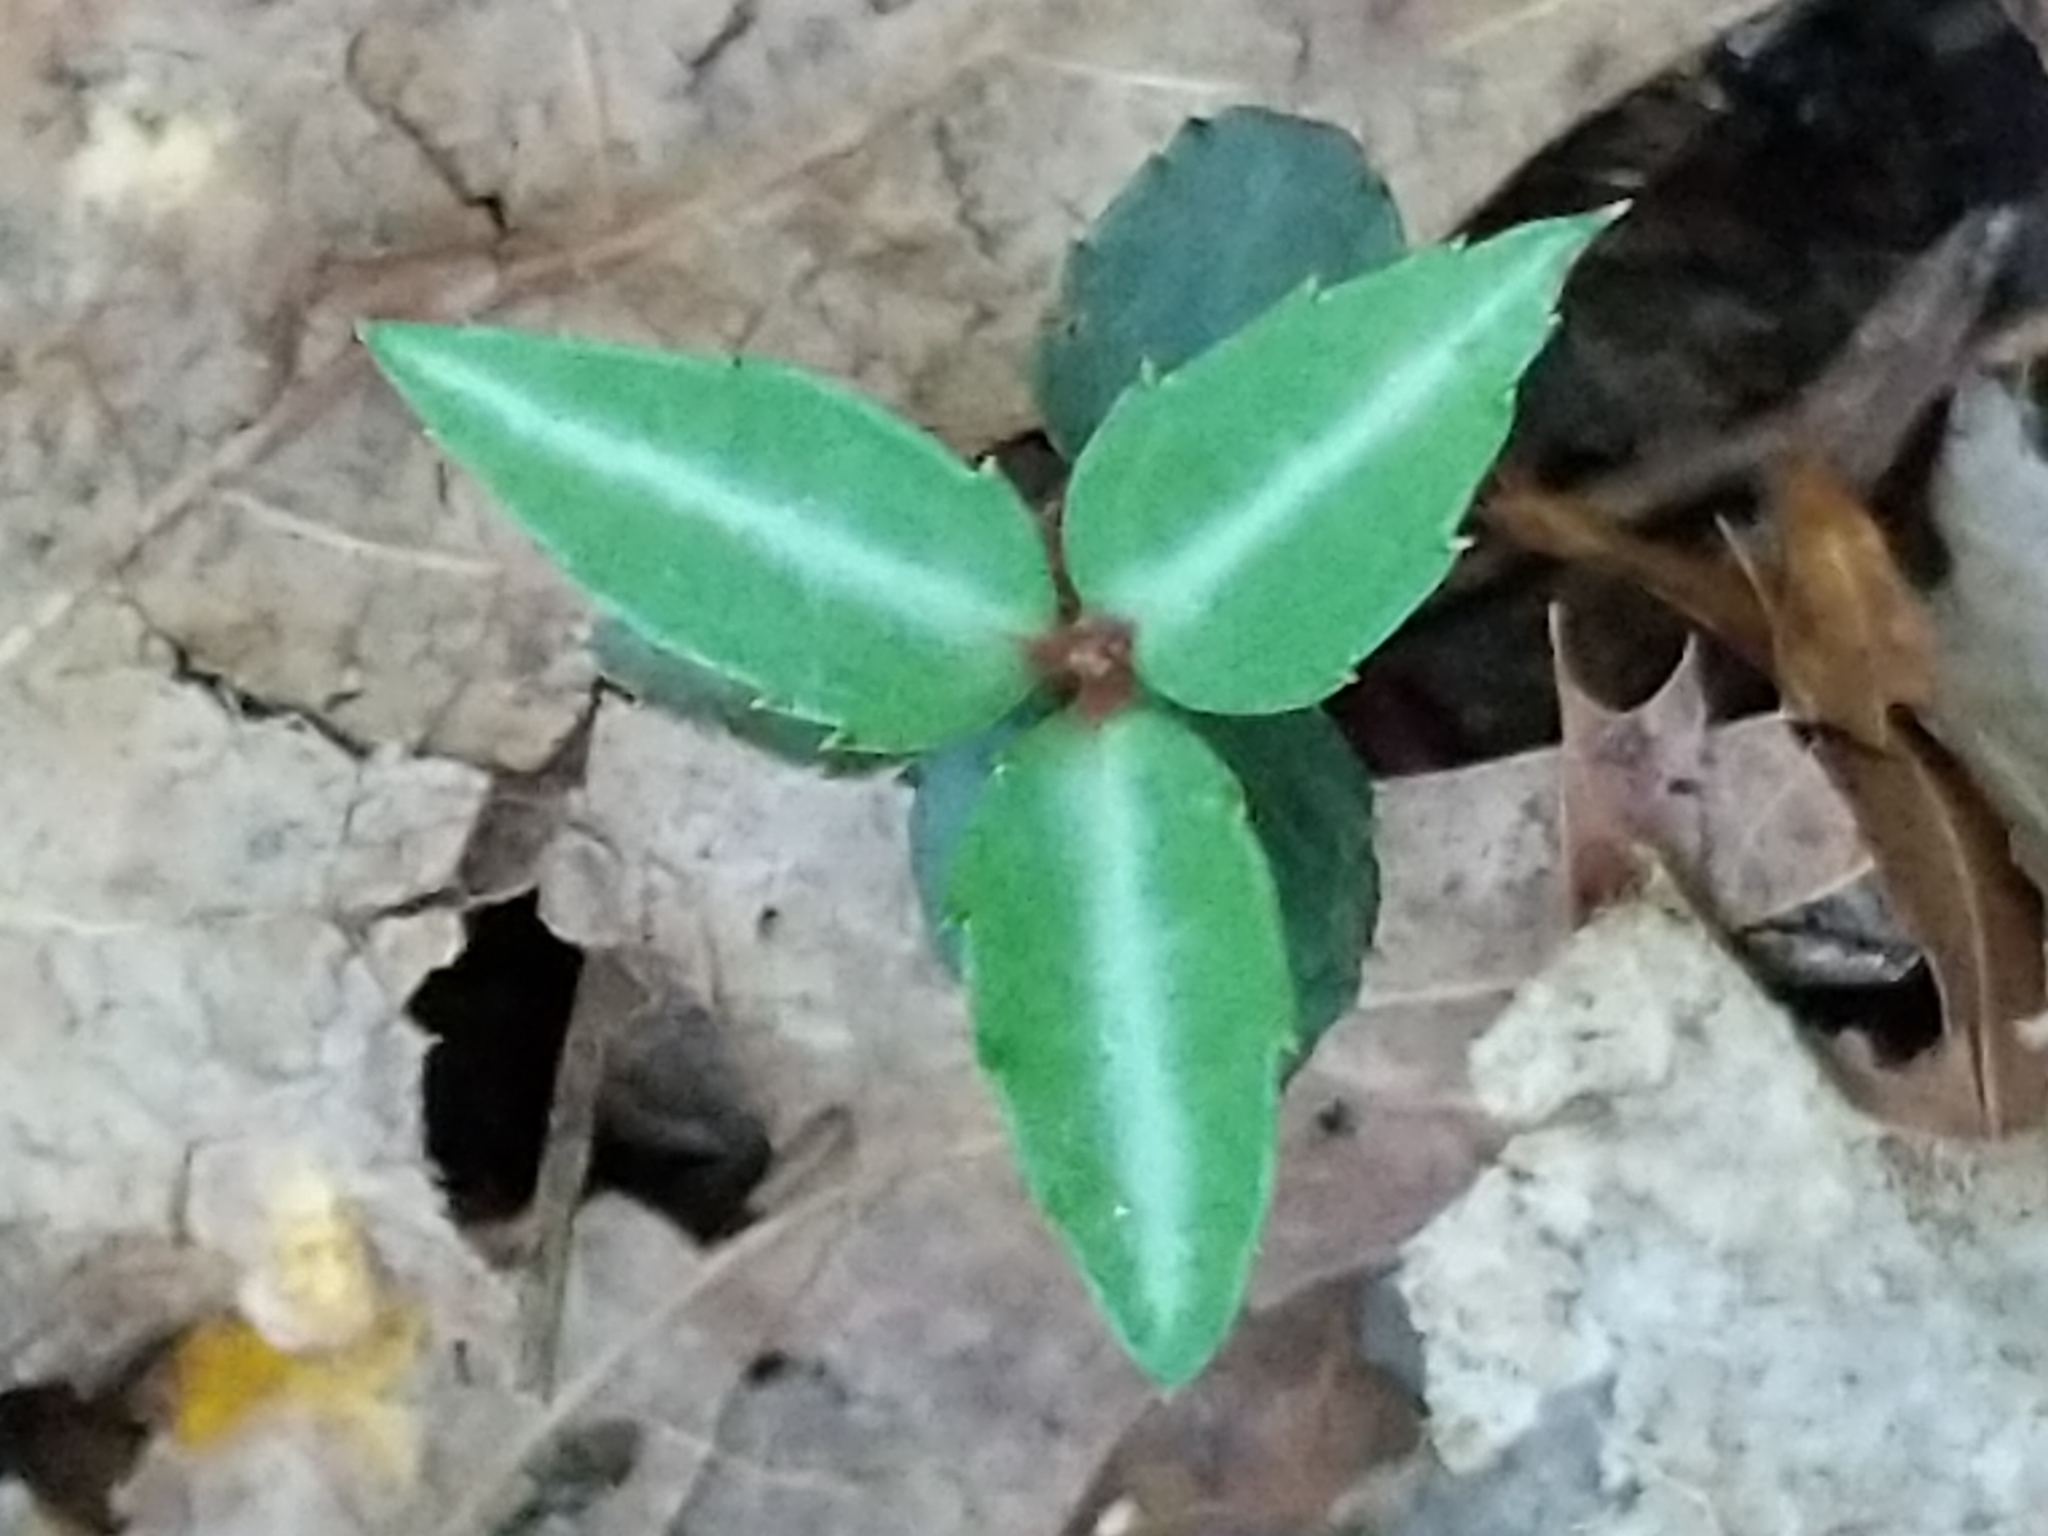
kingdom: Plantae
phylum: Tracheophyta
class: Magnoliopsida
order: Ericales
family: Ericaceae
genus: Chimaphila
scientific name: Chimaphila maculata
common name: Spotted pipsissewa
